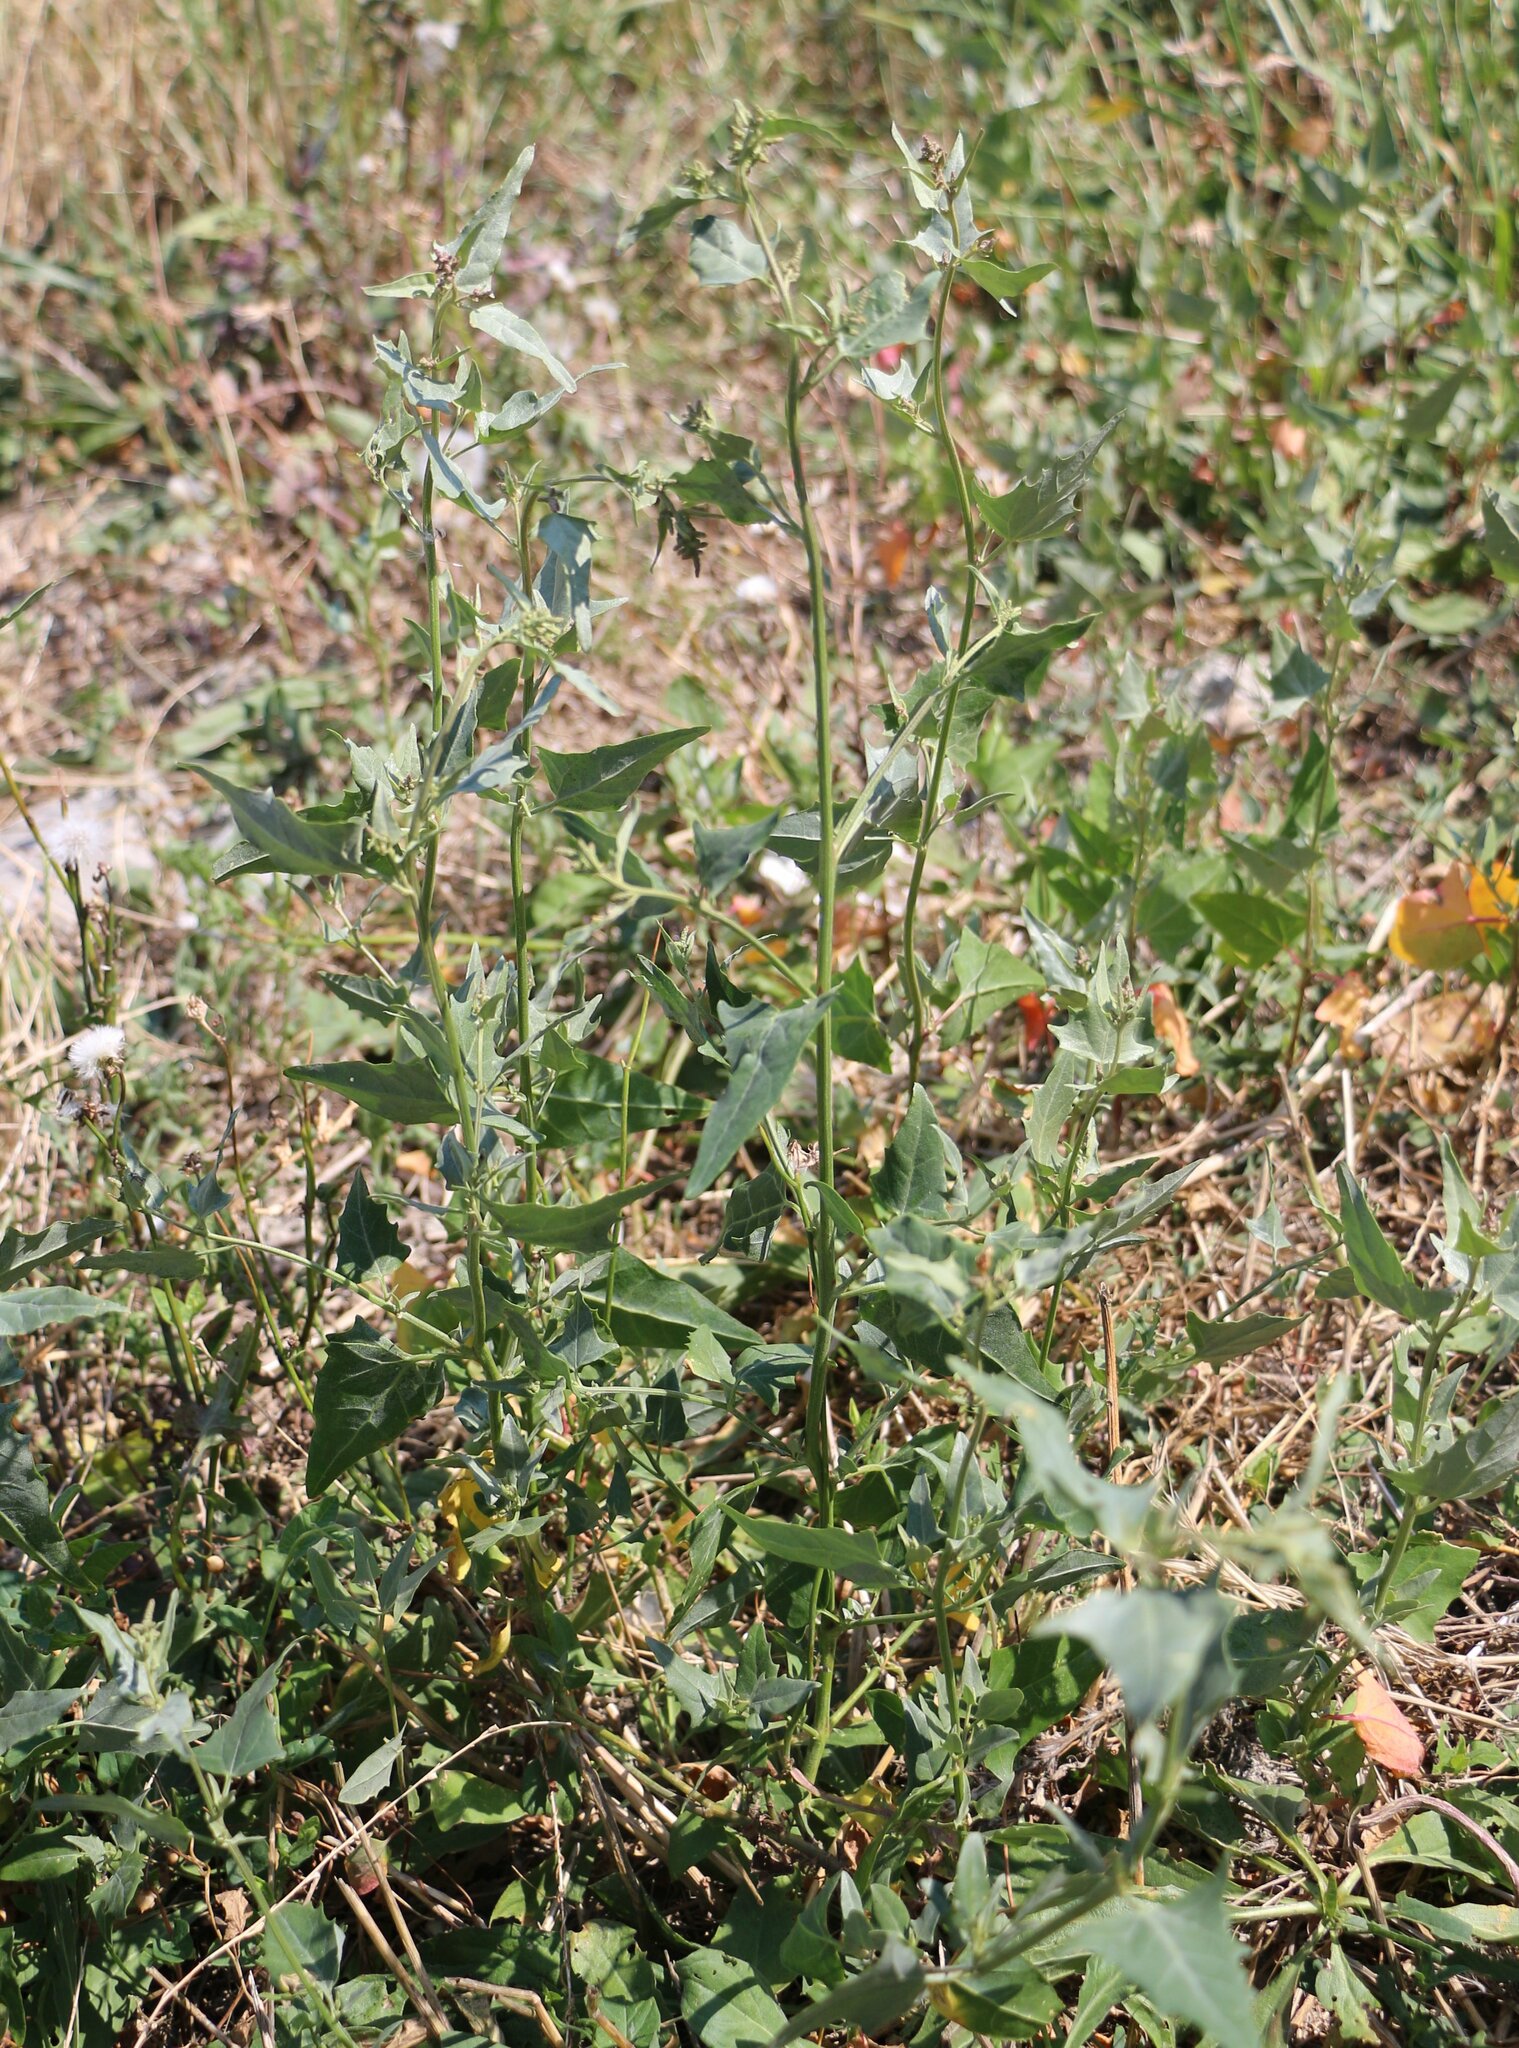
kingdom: Plantae
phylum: Tracheophyta
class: Magnoliopsida
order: Caryophyllales
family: Amaranthaceae
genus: Atriplex
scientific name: Atriplex micrantha
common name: Twoscale saltbush
